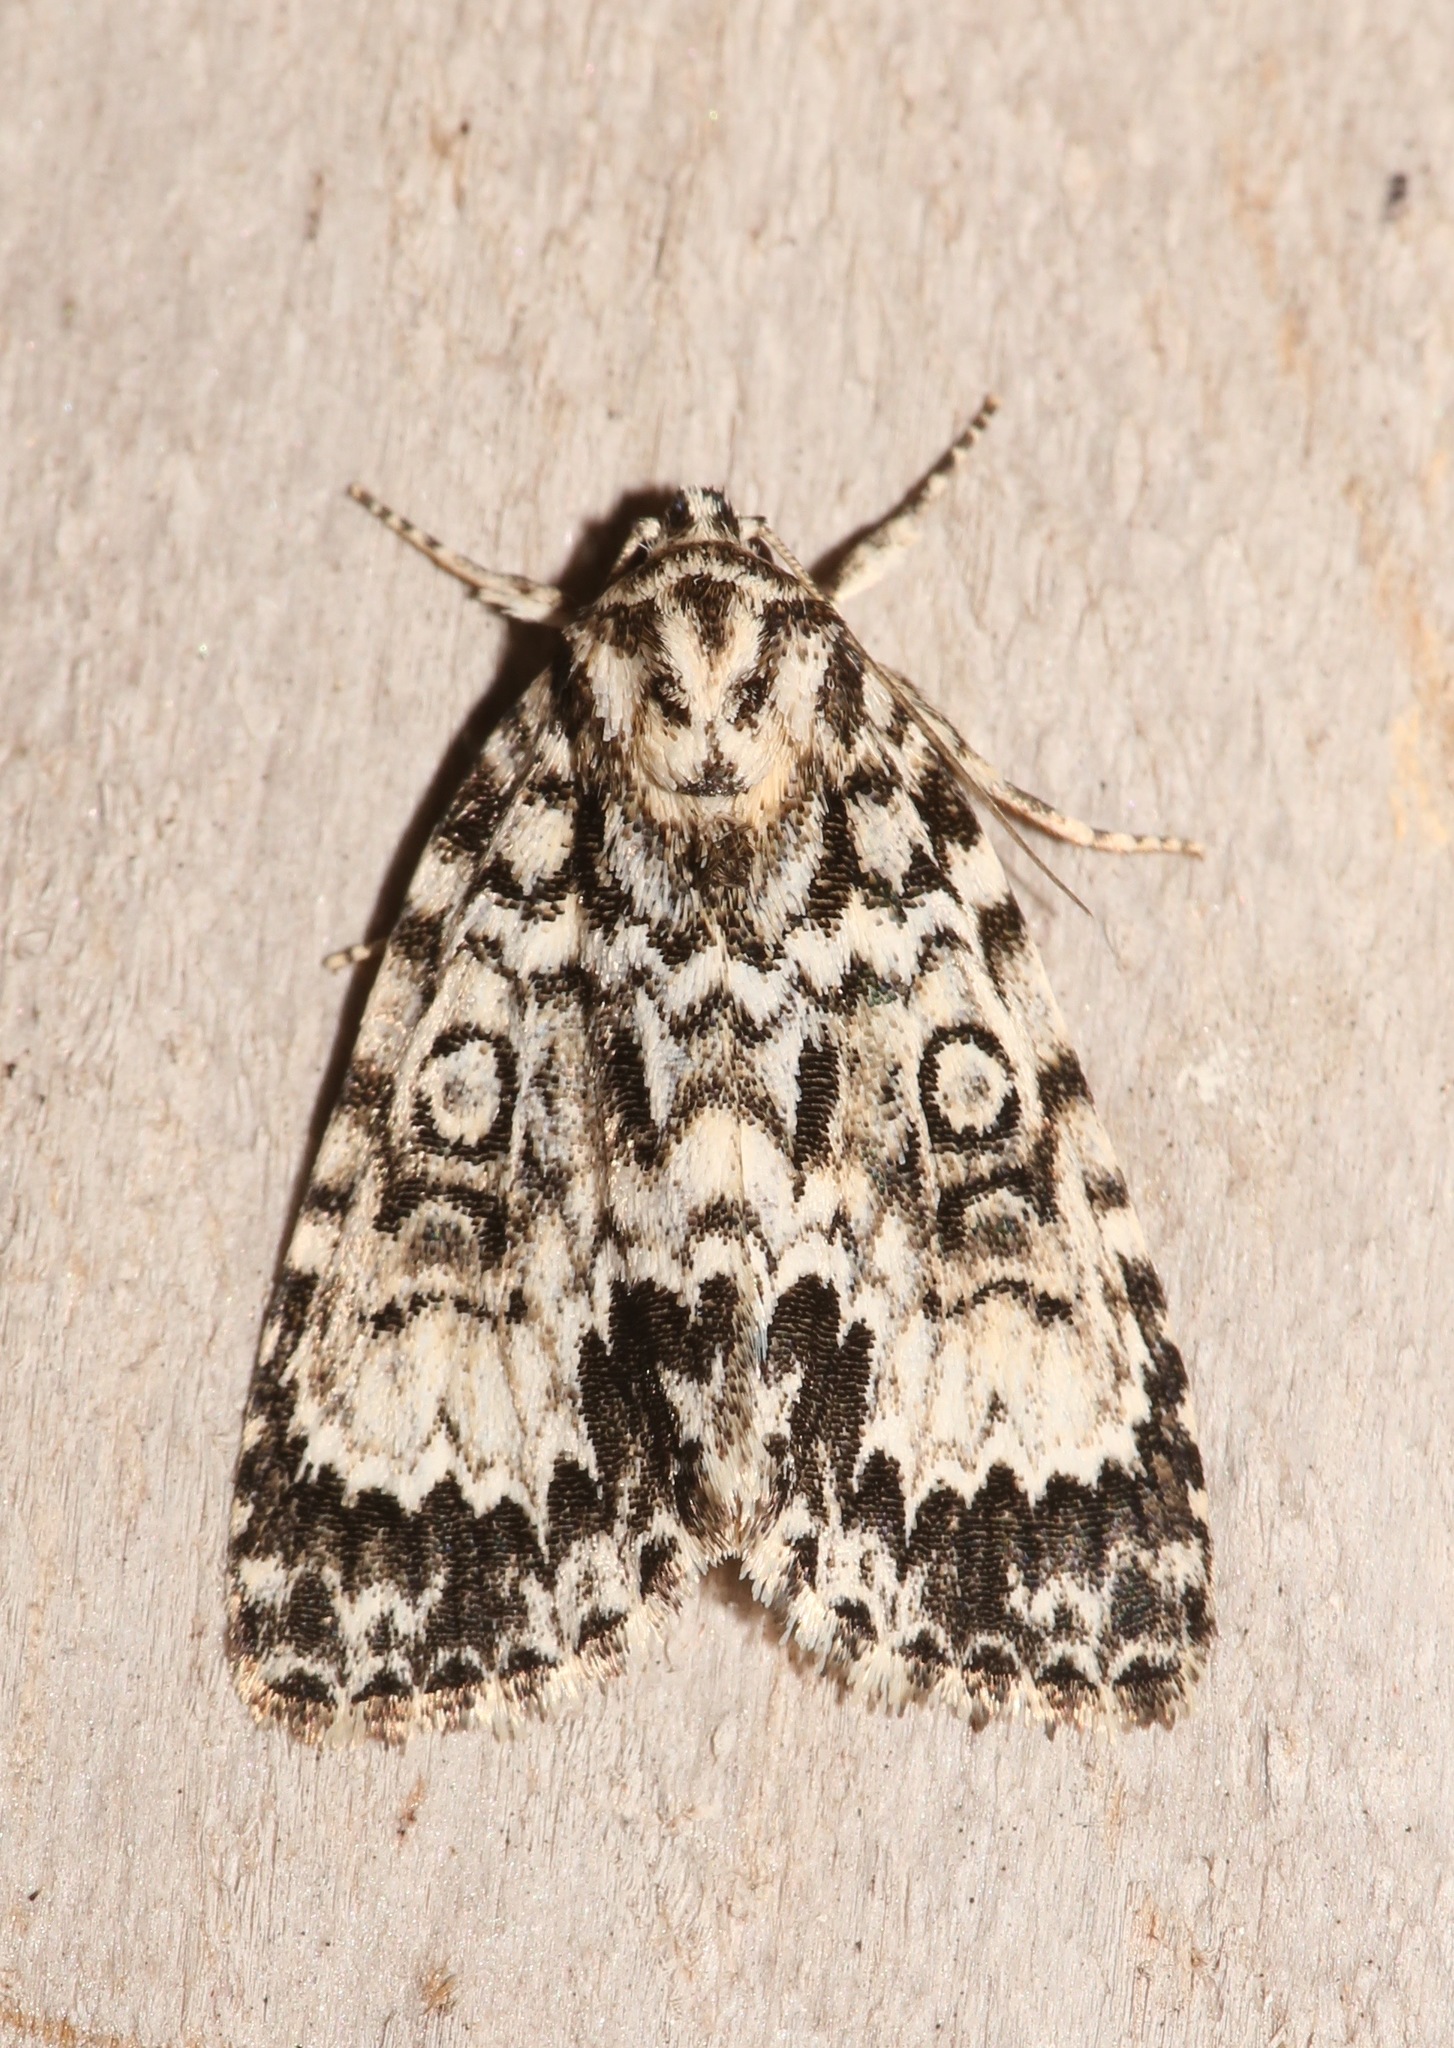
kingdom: Animalia
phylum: Arthropoda
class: Insecta
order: Lepidoptera
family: Noctuidae
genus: Acronicta
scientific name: Acronicta fragilis
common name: Fragile dagger
